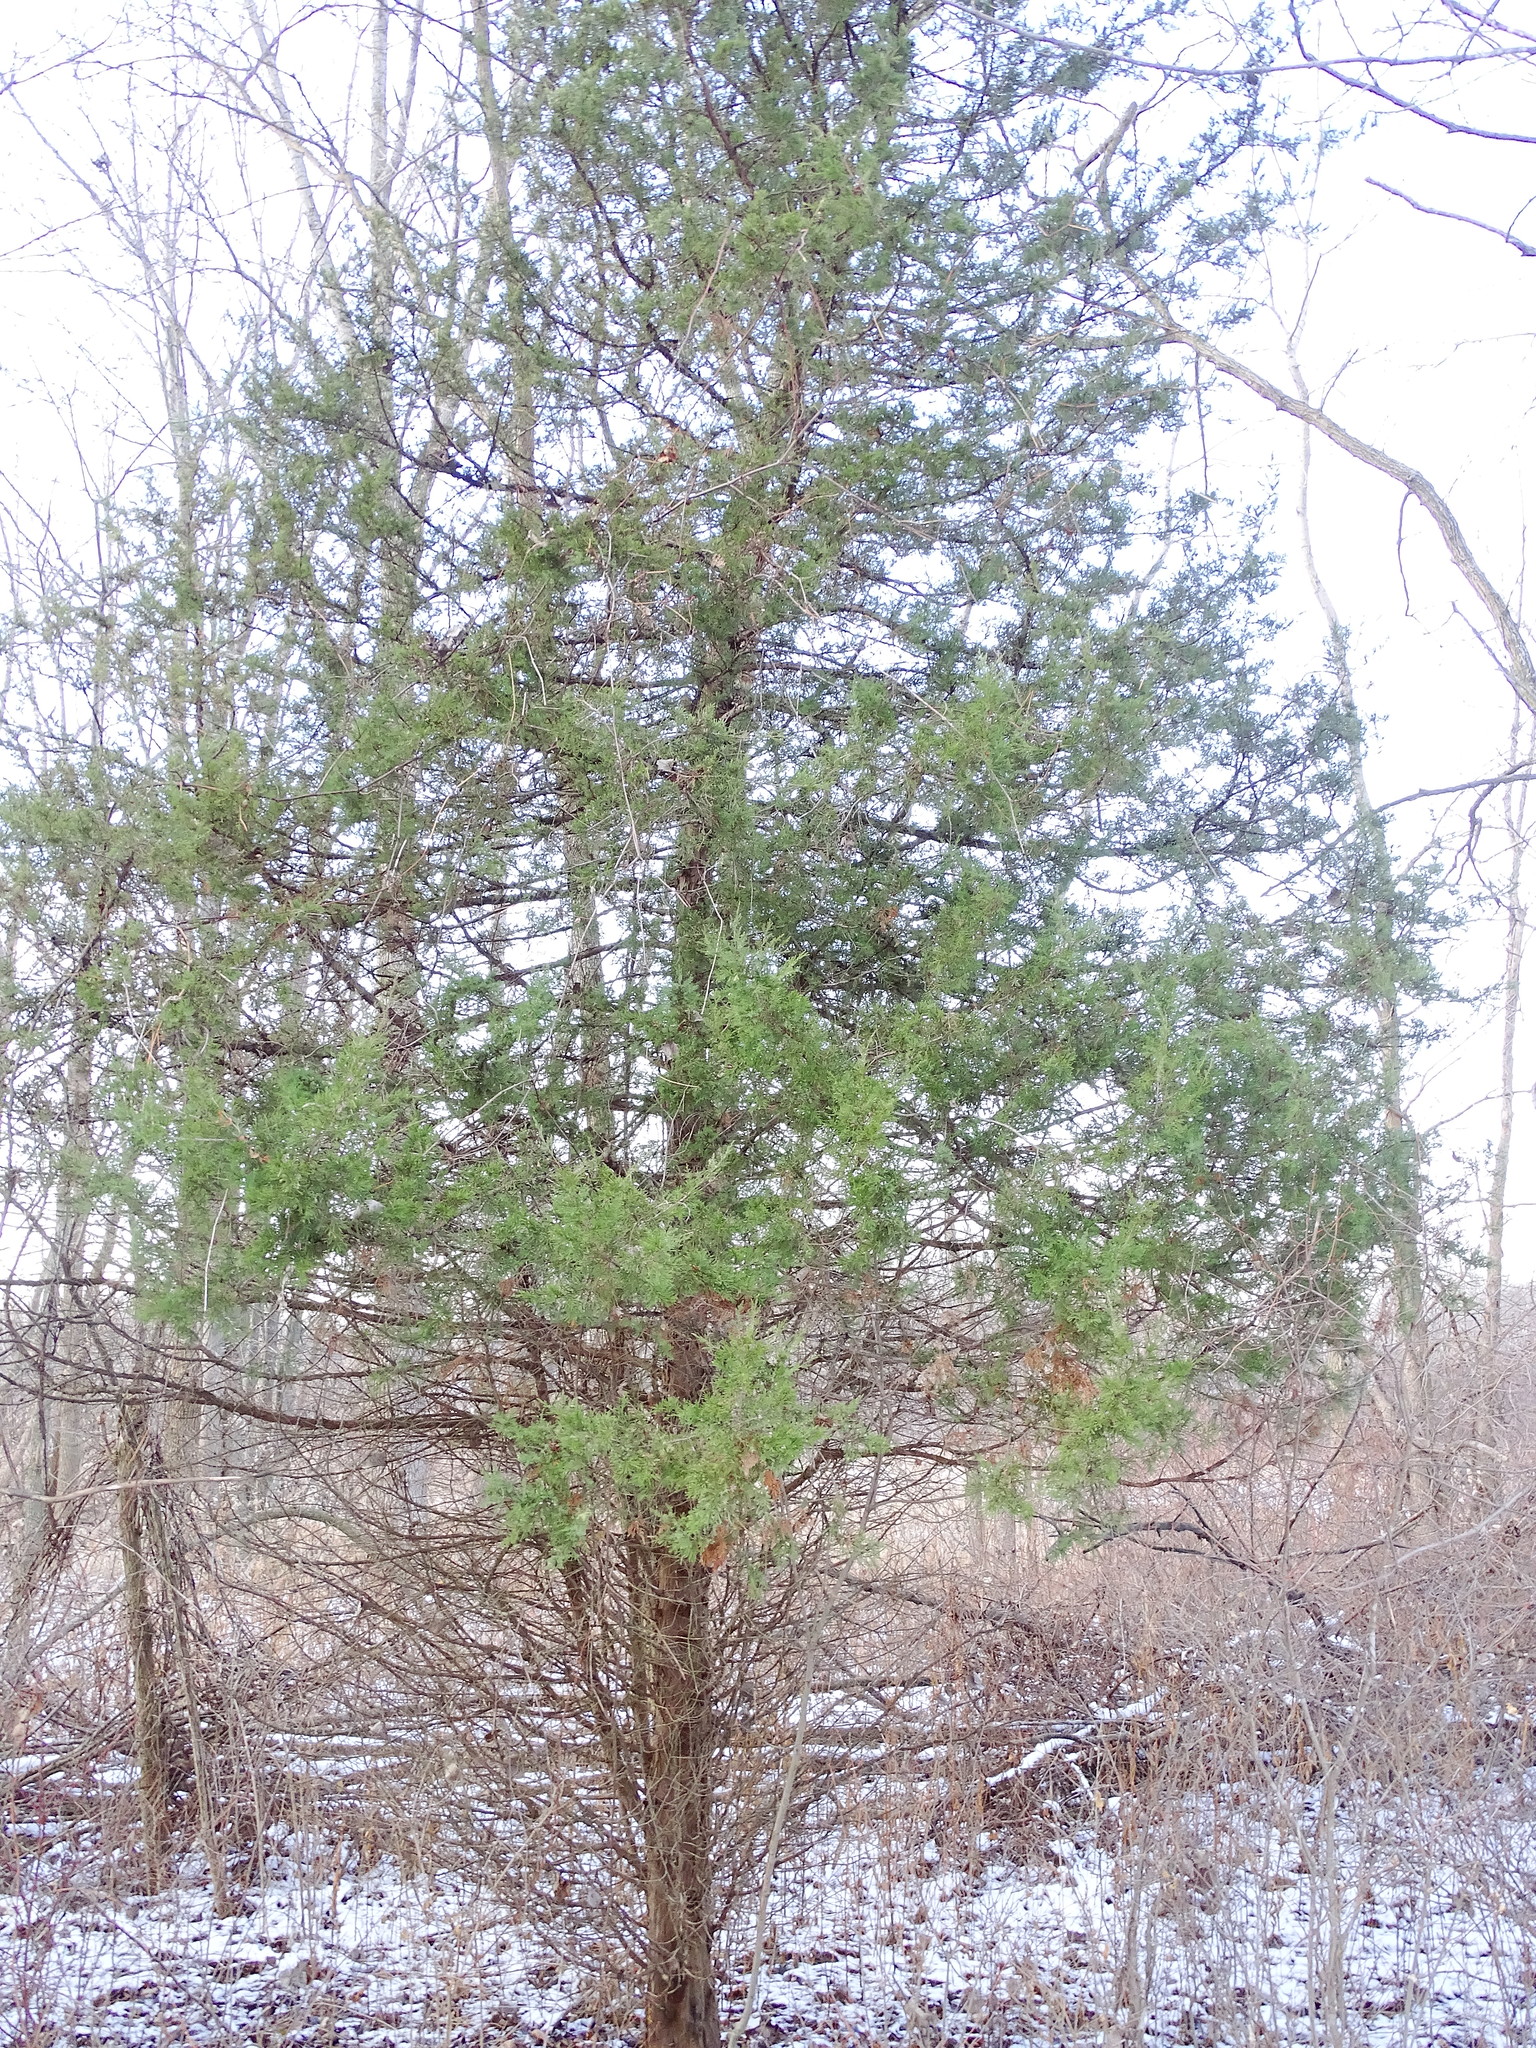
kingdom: Plantae
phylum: Tracheophyta
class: Pinopsida
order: Pinales
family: Cupressaceae
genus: Juniperus
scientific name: Juniperus virginiana
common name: Red juniper
